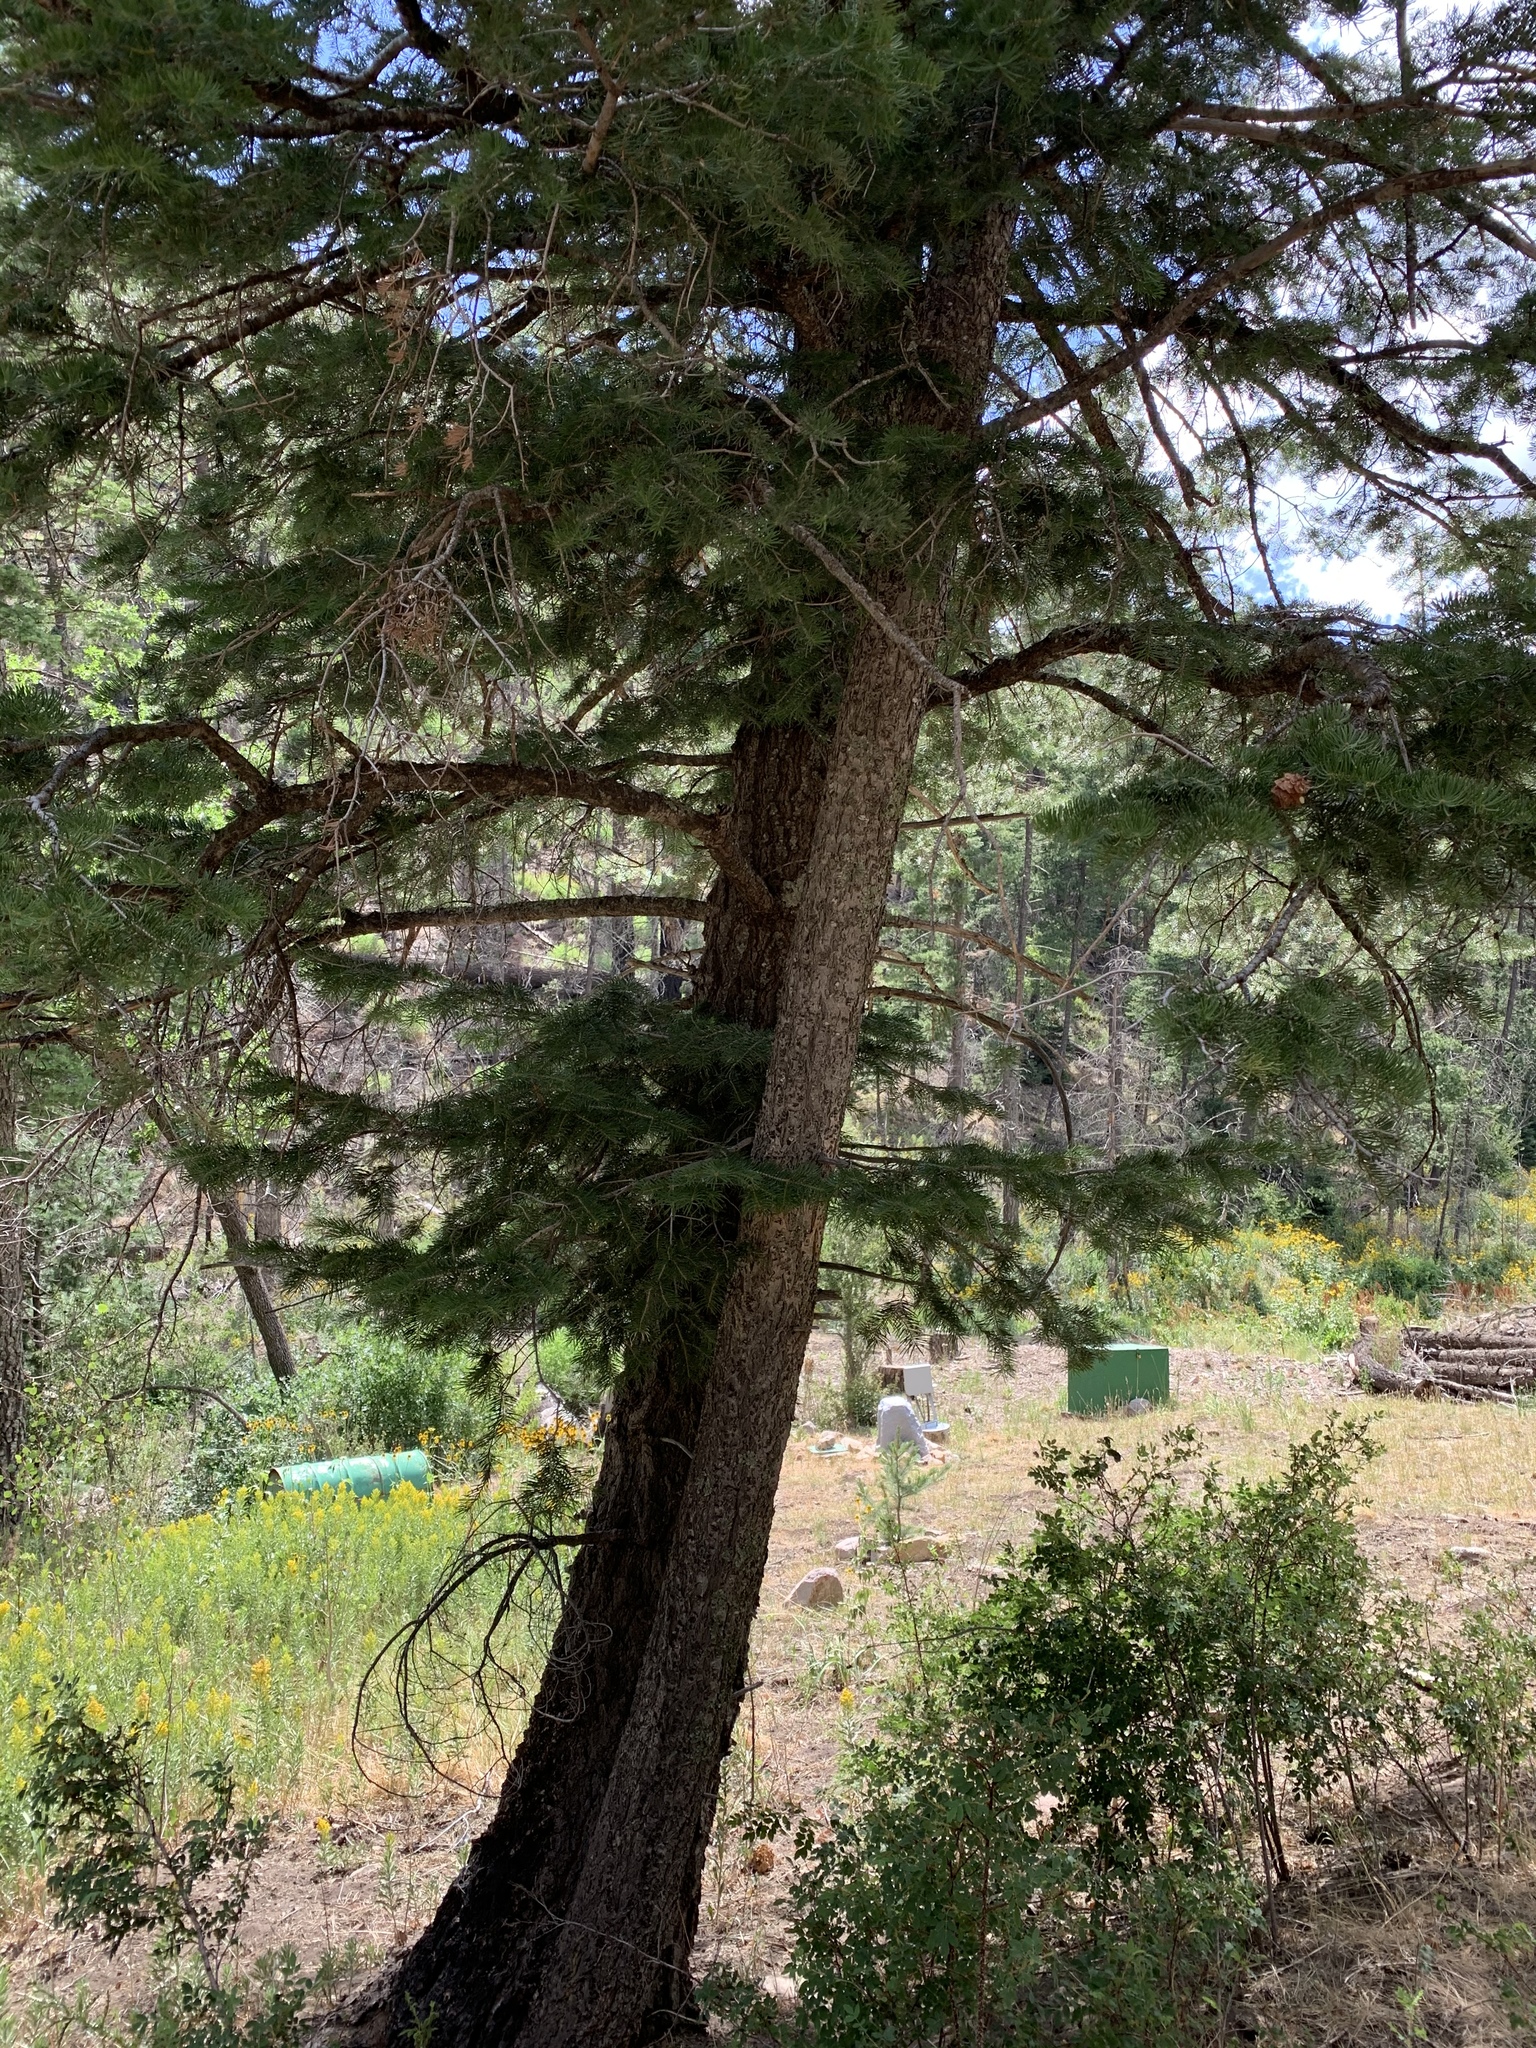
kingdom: Plantae
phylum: Tracheophyta
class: Pinopsida
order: Pinales
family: Pinaceae
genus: Abies
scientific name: Abies concolor
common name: Colorado fir
